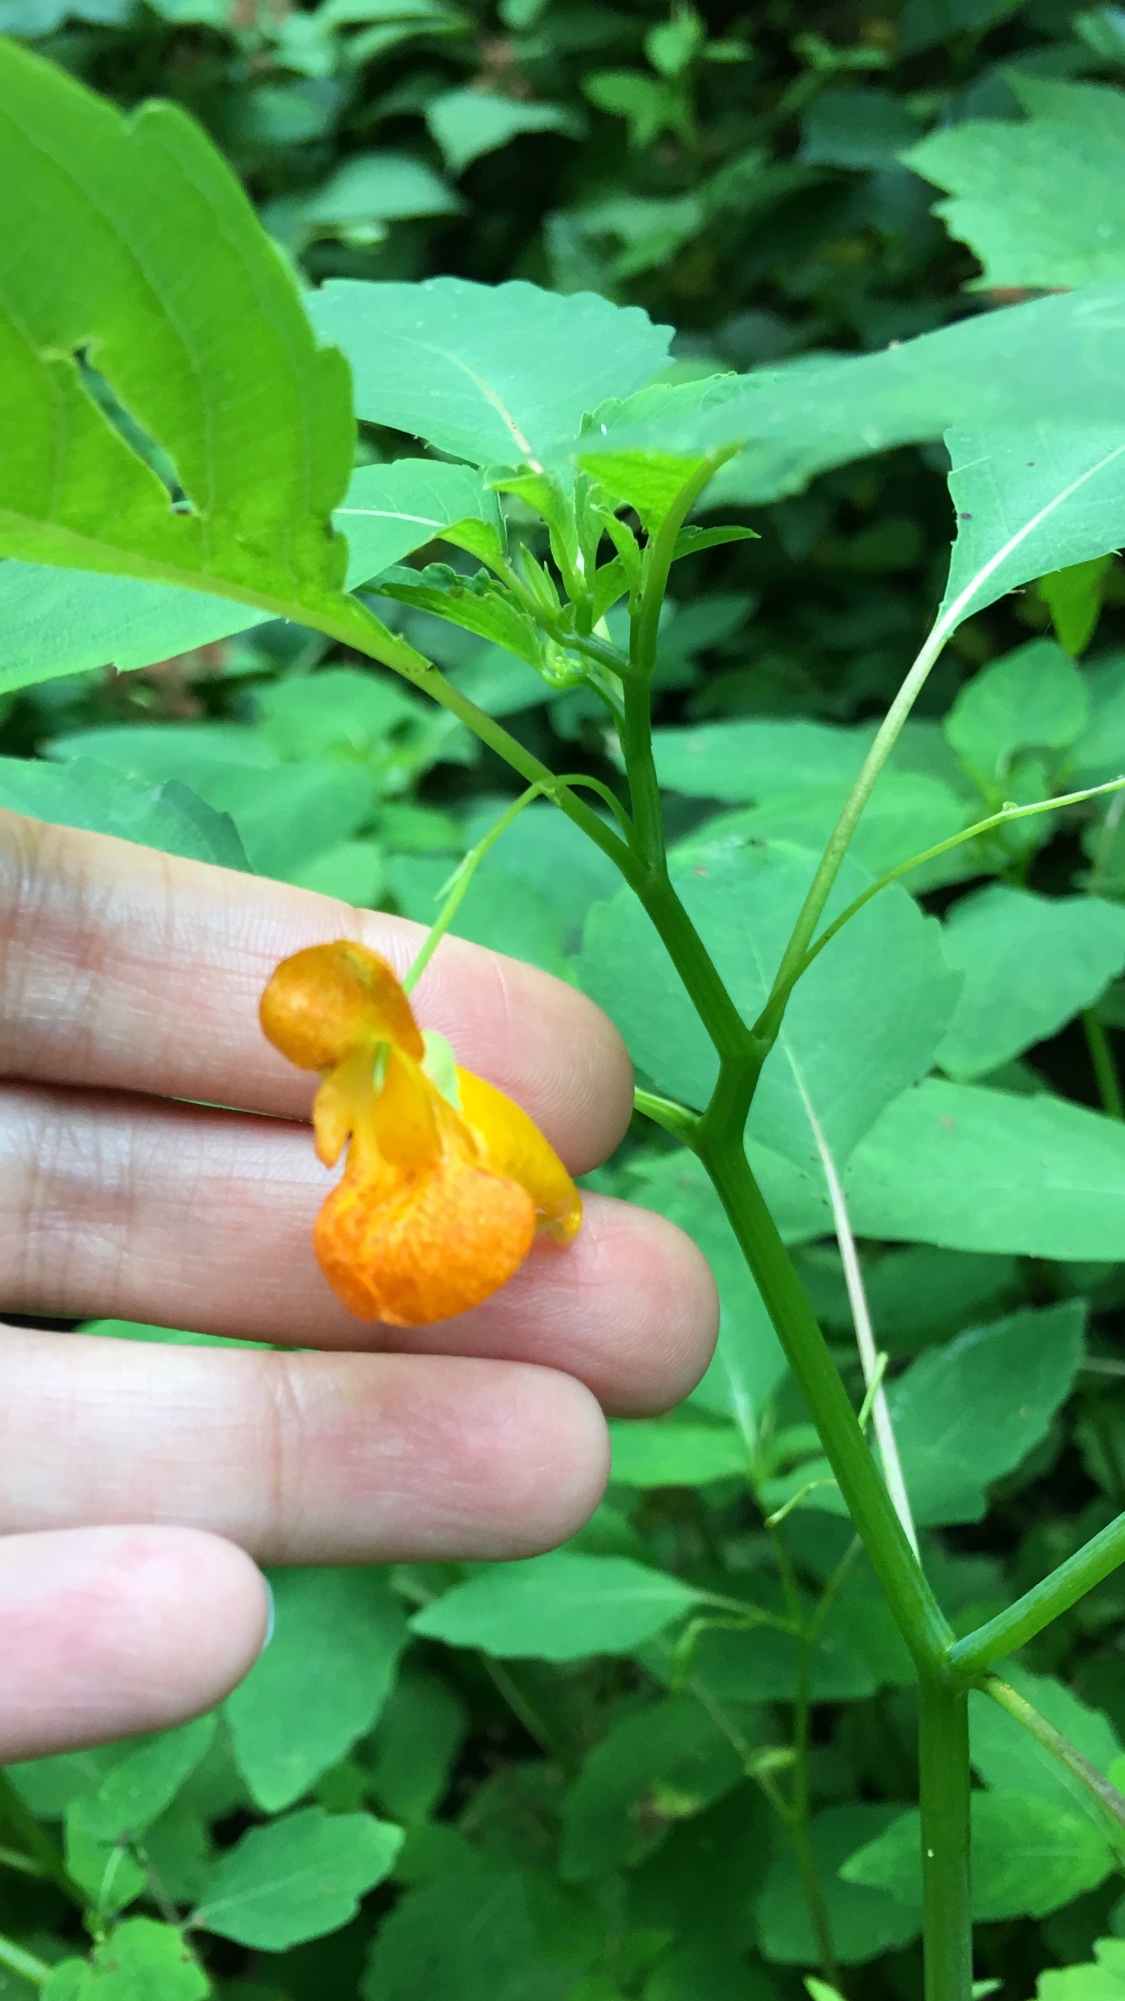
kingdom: Plantae
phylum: Tracheophyta
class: Magnoliopsida
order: Ericales
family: Balsaminaceae
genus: Impatiens
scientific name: Impatiens capensis
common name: Orange balsam
